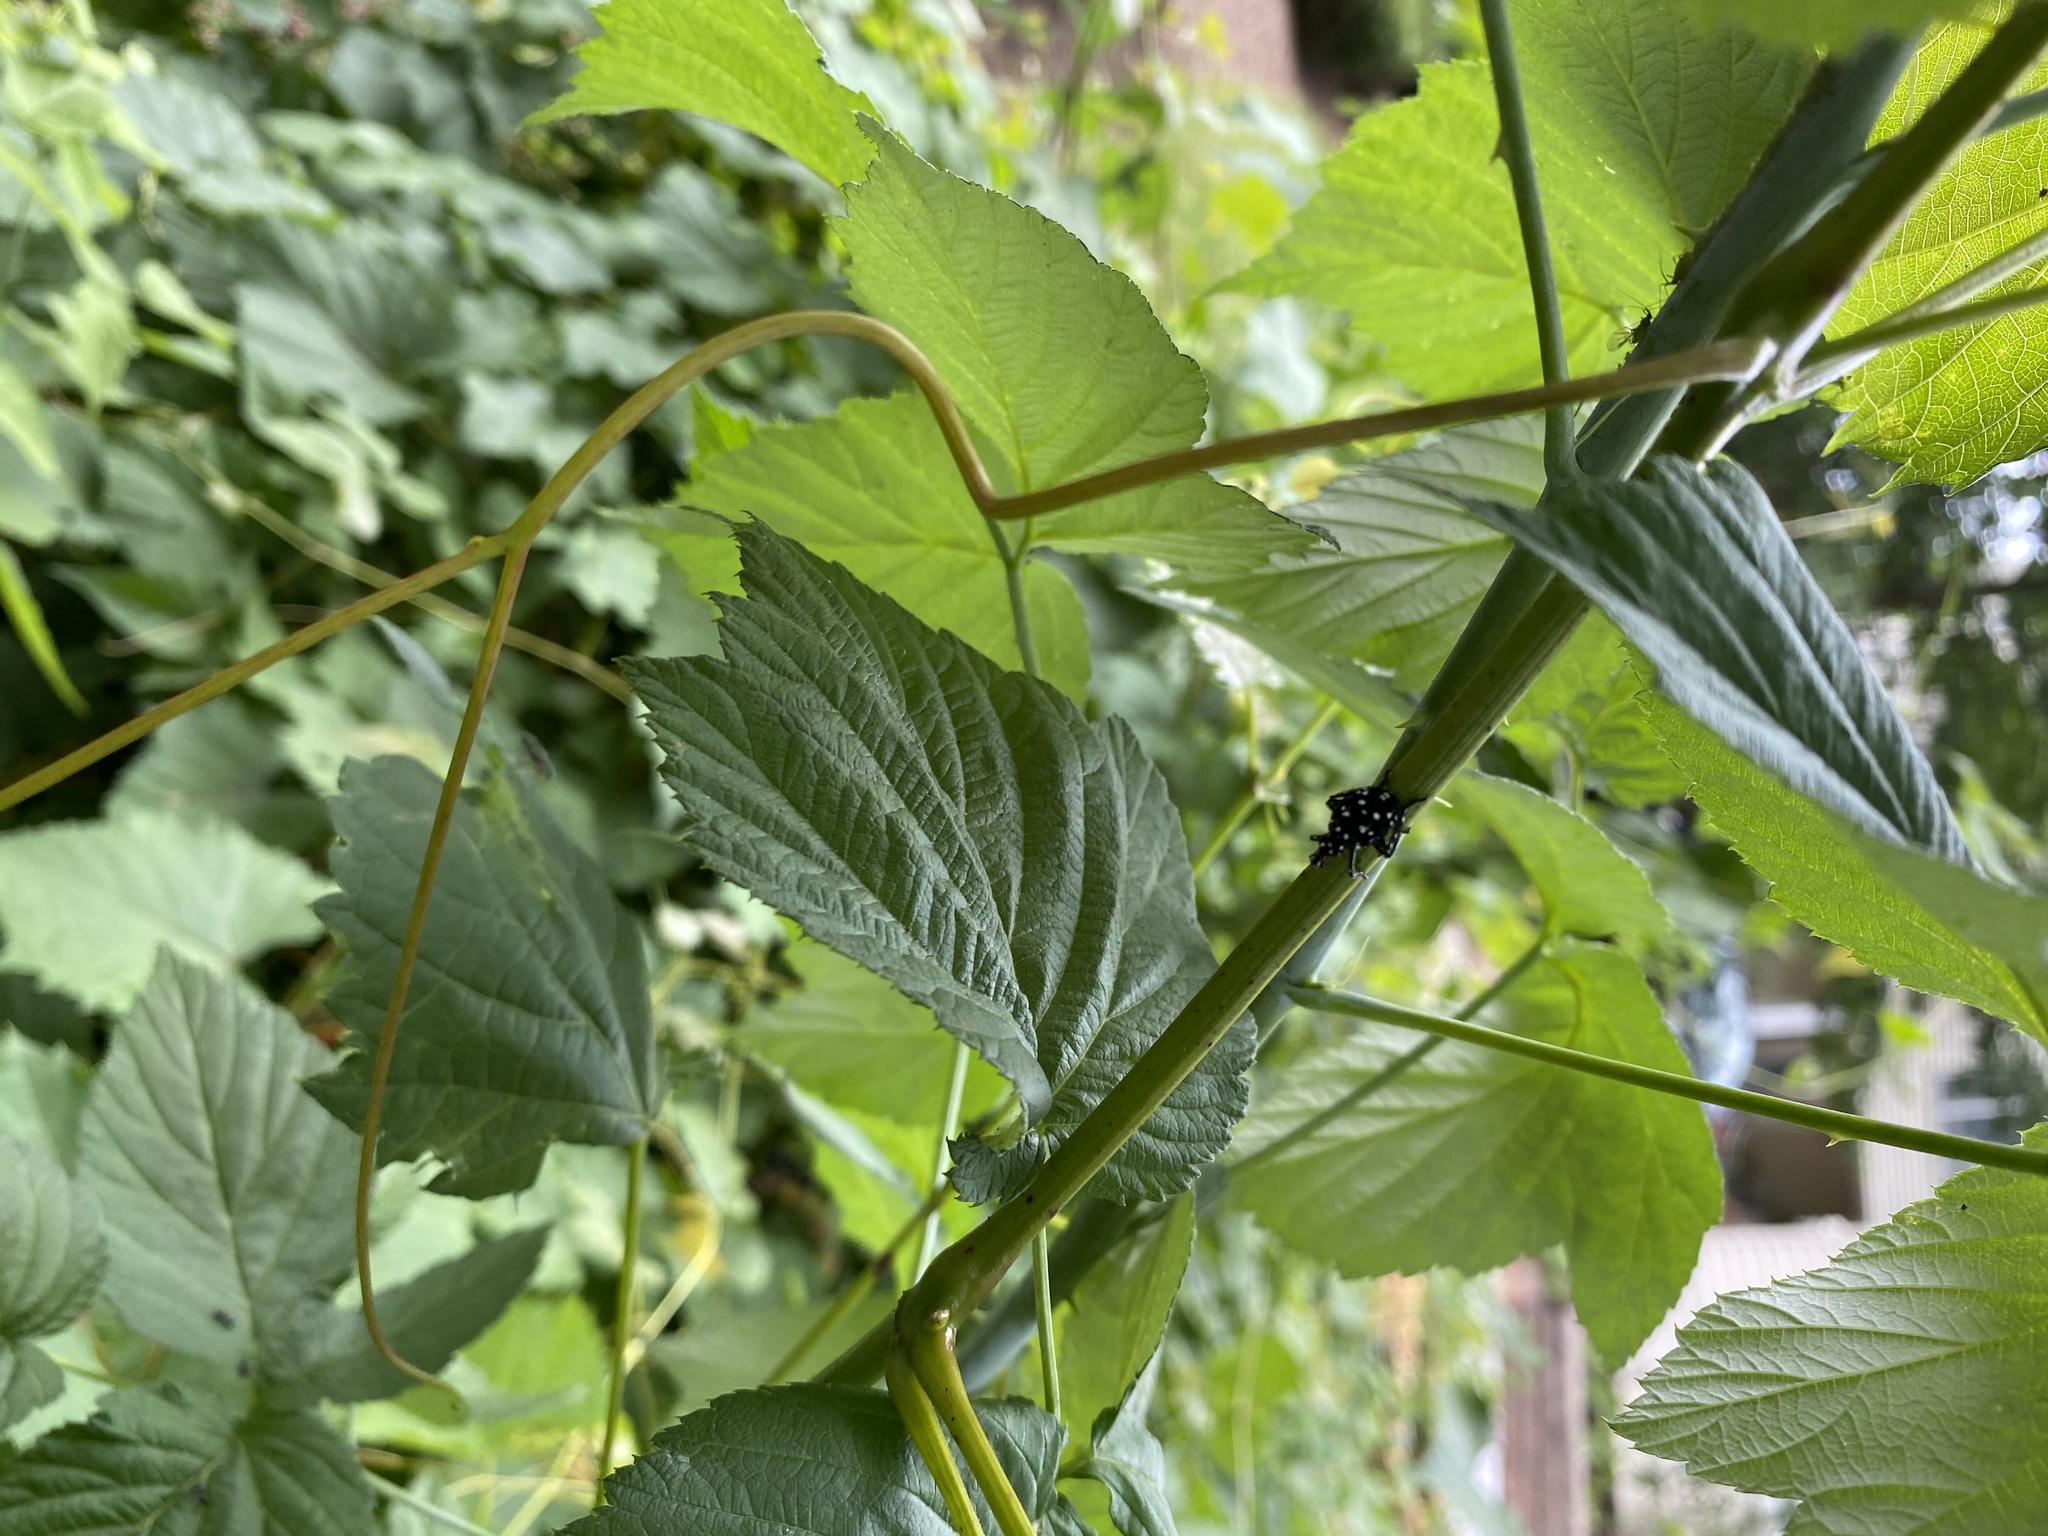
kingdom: Animalia
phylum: Arthropoda
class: Insecta
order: Hemiptera
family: Fulgoridae
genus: Lycorma
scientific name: Lycorma delicatula
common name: Spotted lanternfly
